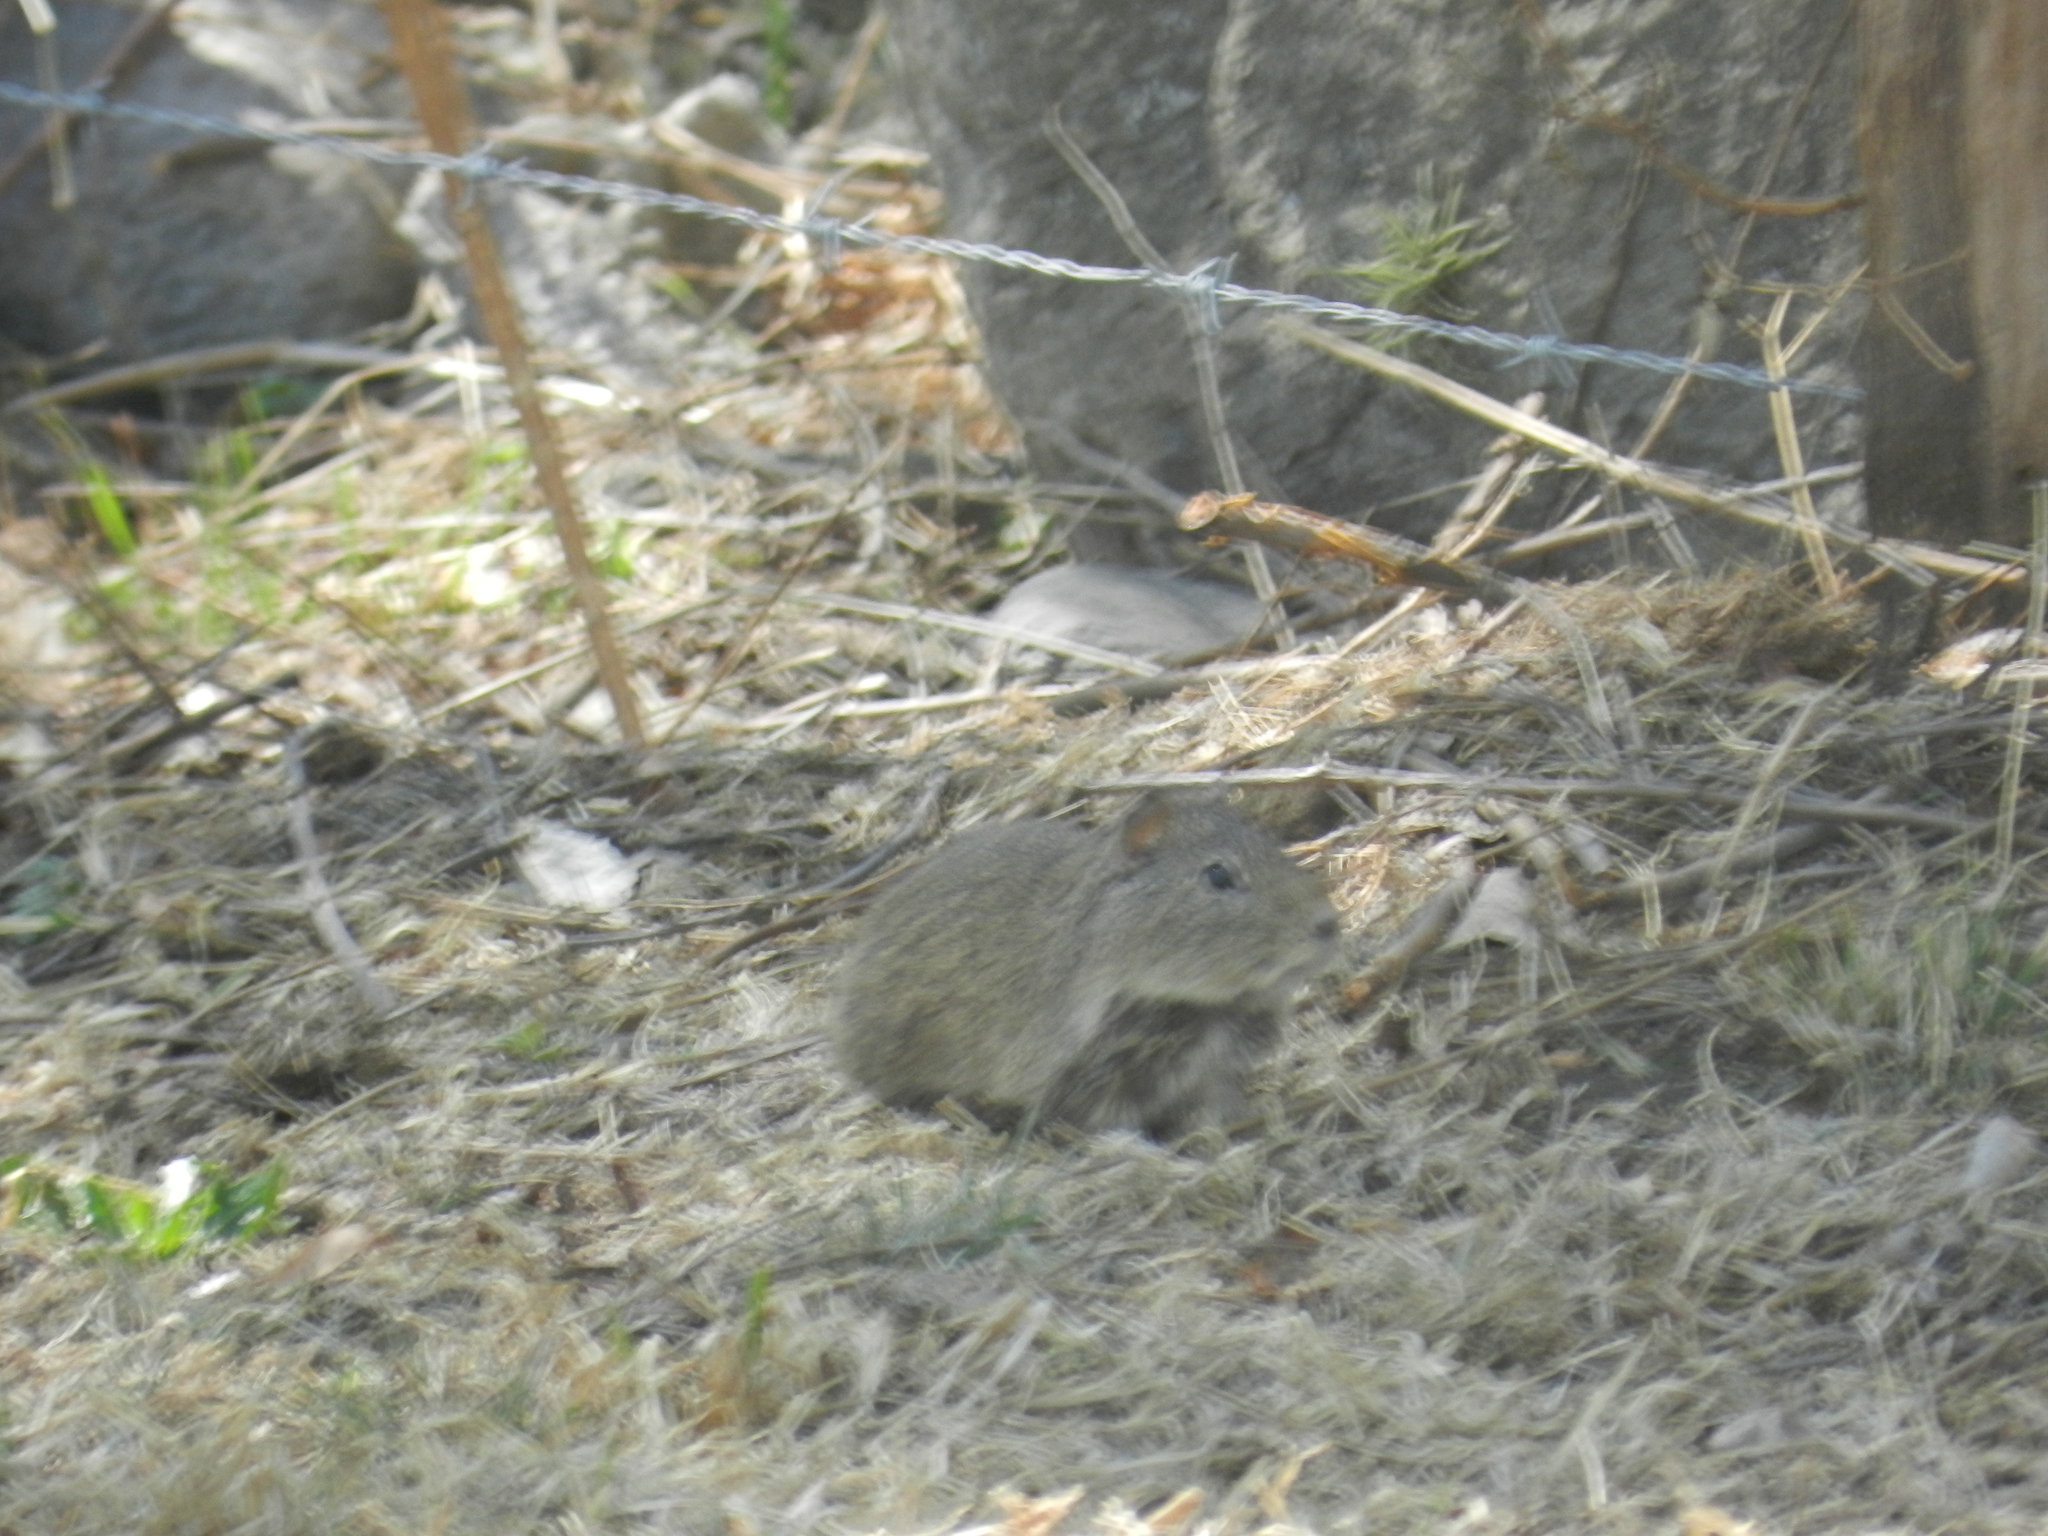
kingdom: Animalia
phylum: Chordata
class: Mammalia
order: Rodentia
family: Caviidae
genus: Cavia
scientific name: Cavia tschudii
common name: Montane guinea pig
